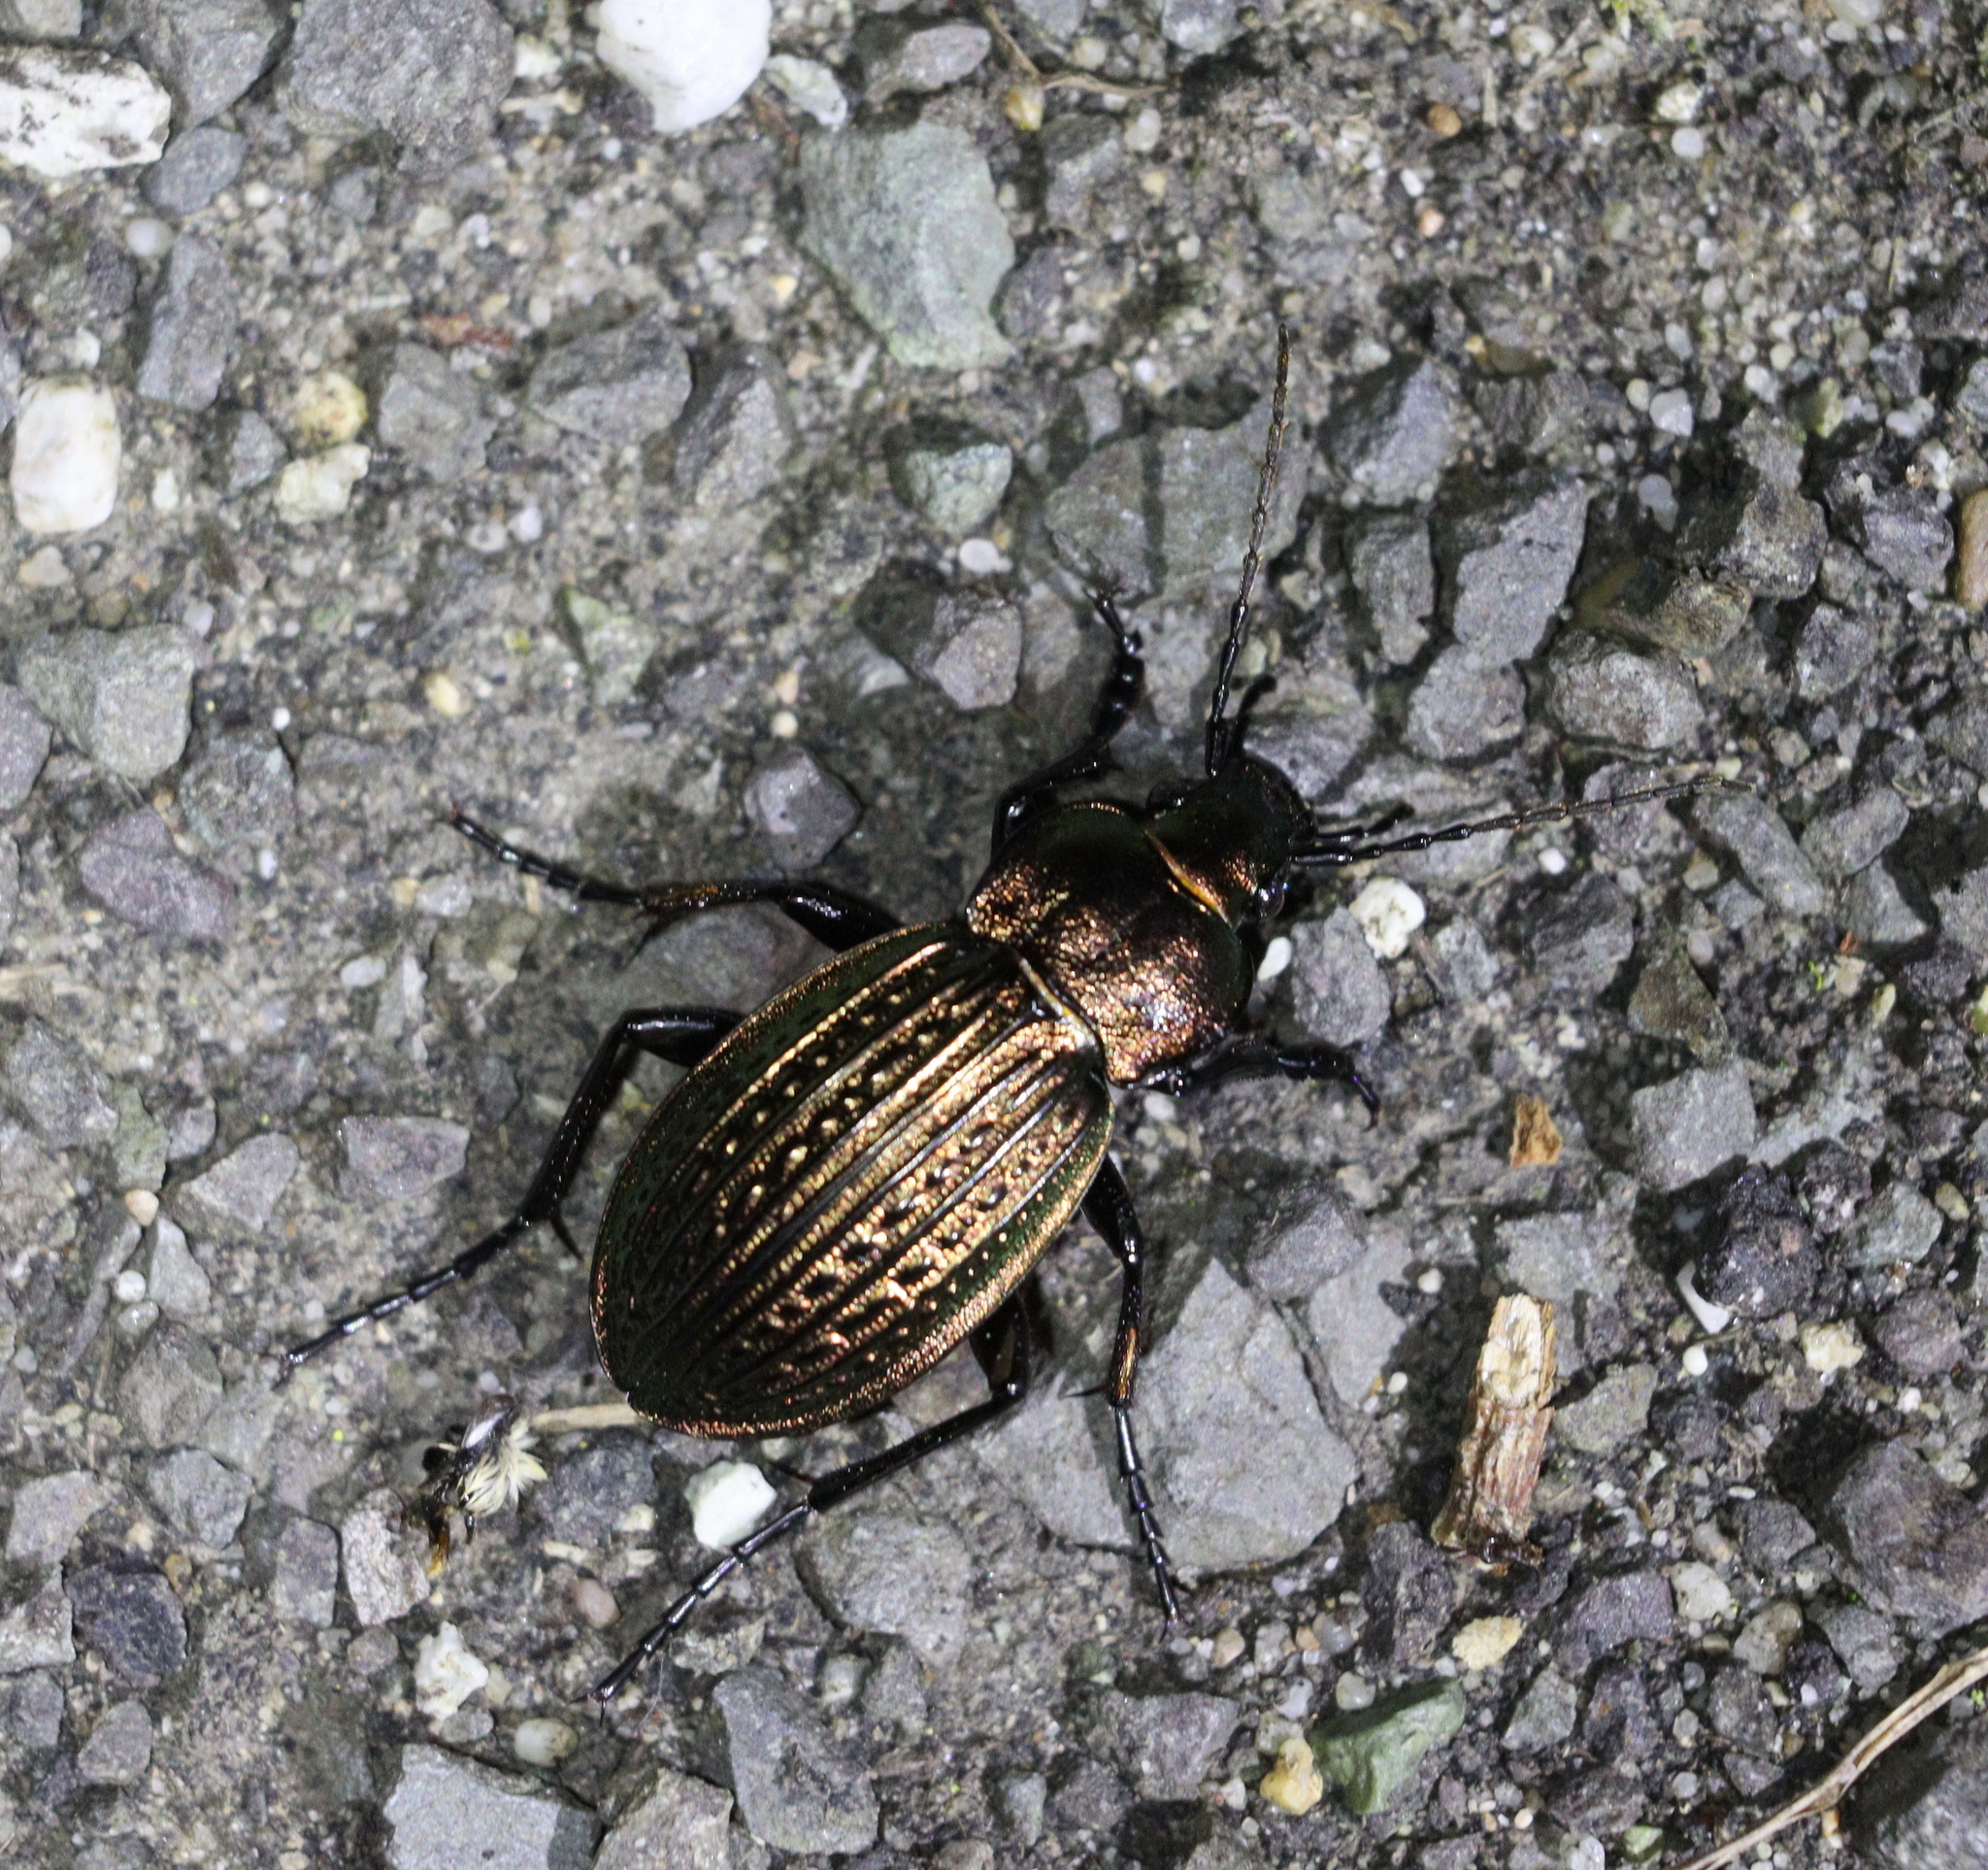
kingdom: Animalia
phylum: Arthropoda
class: Insecta
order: Coleoptera
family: Carabidae
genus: Carabus
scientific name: Carabus ulrichii
